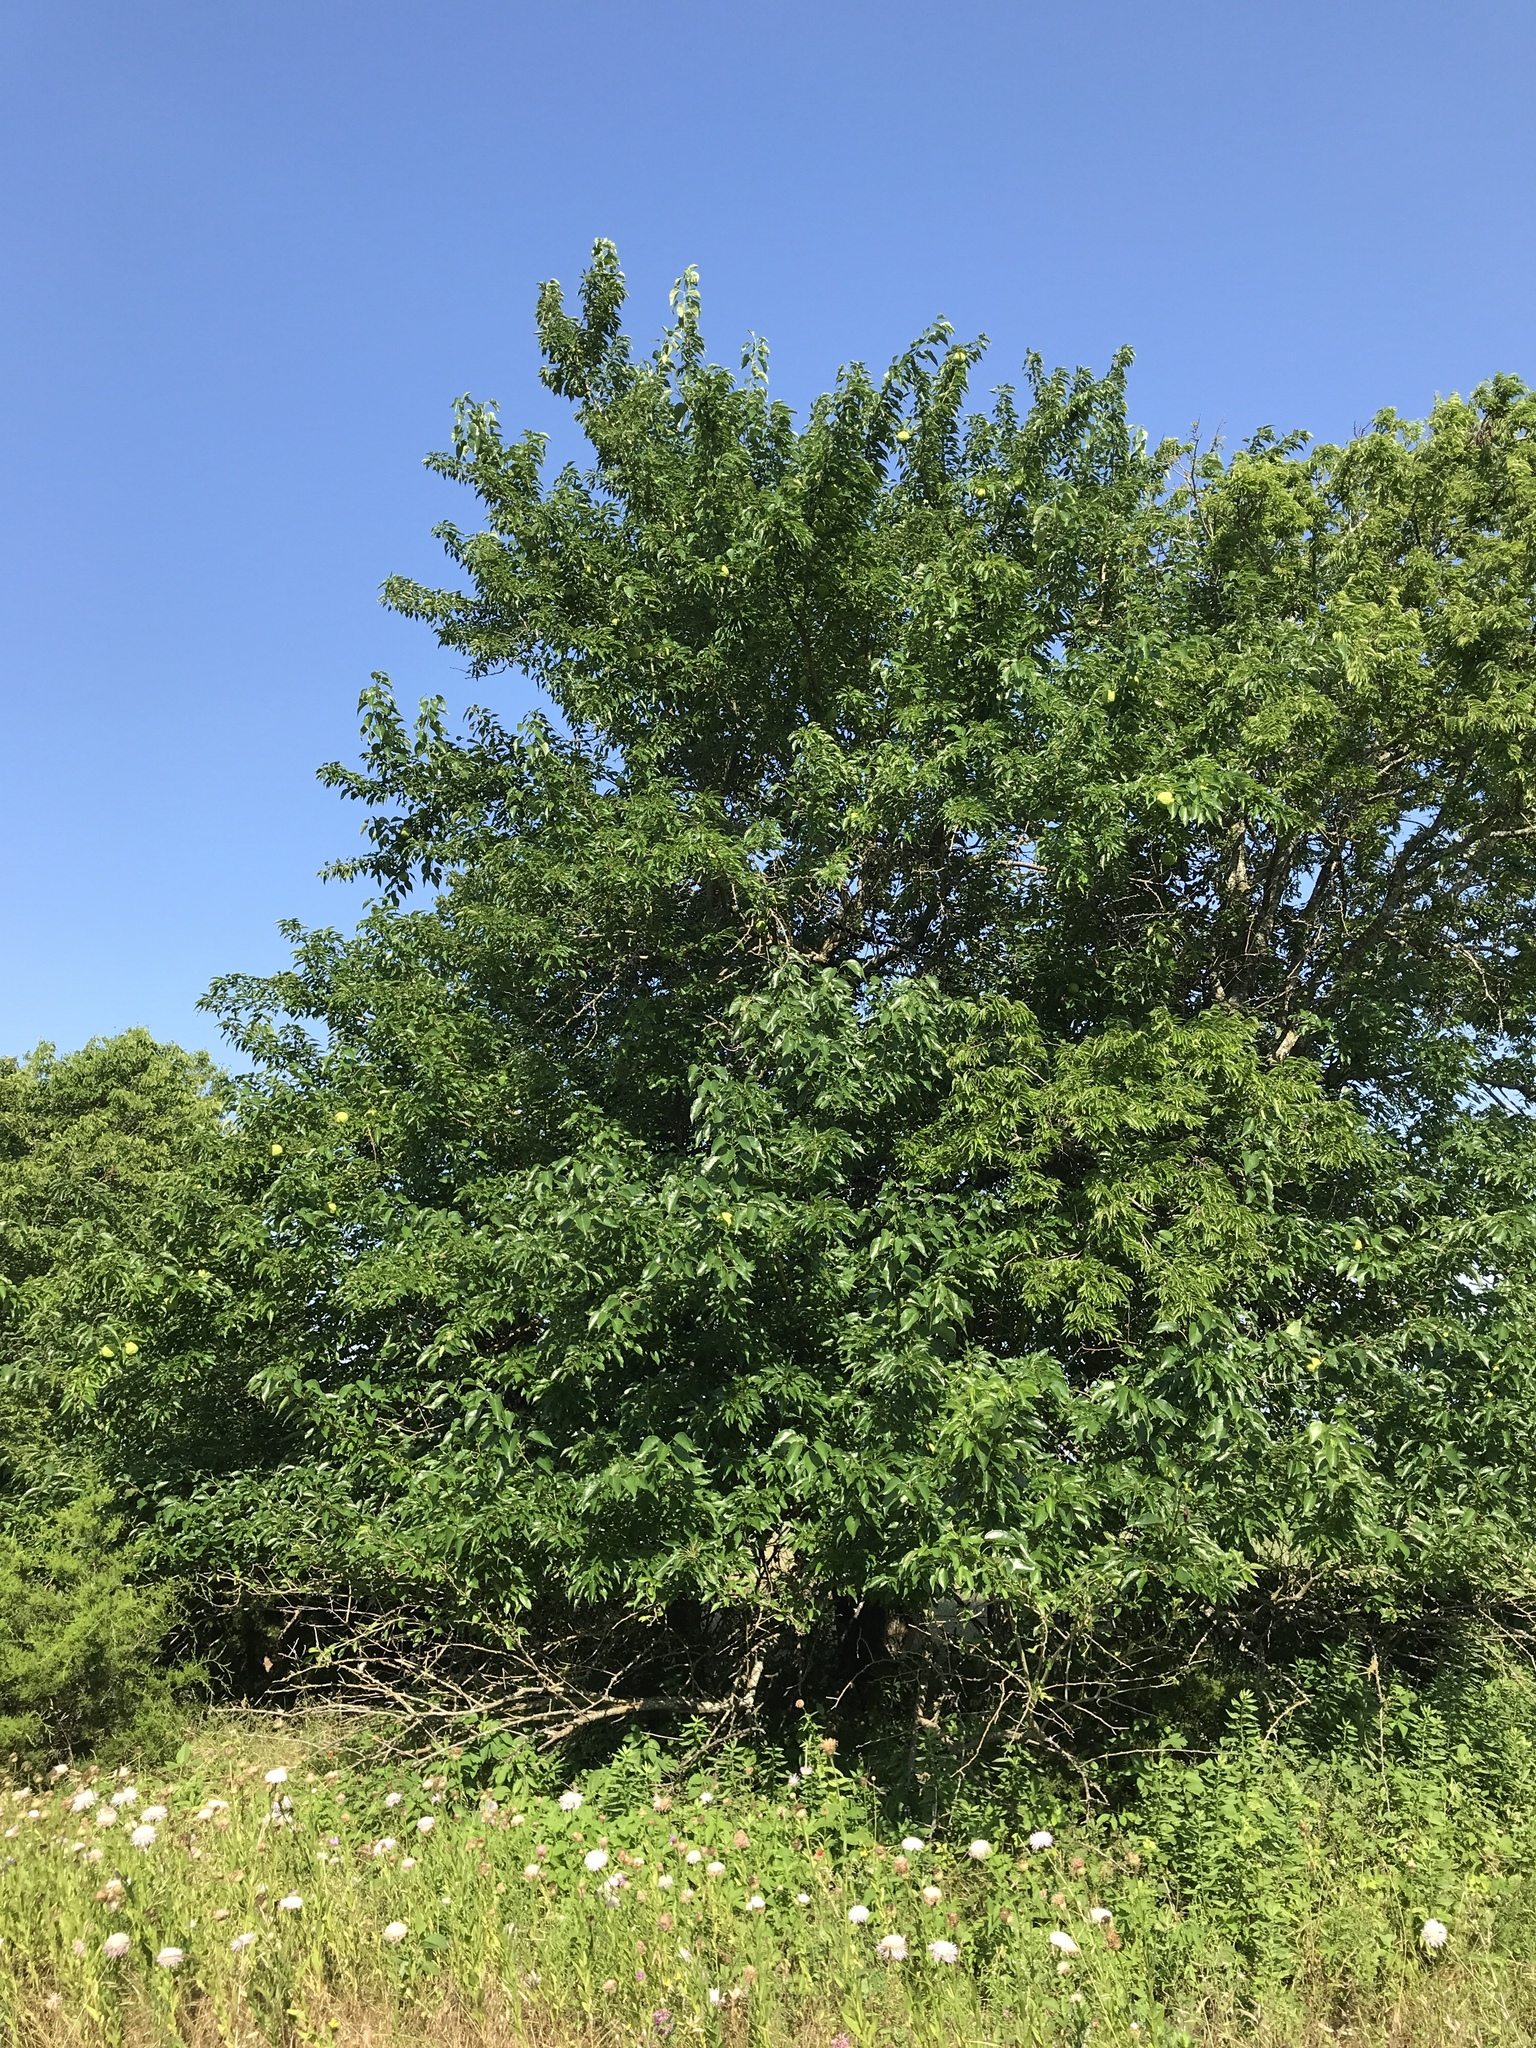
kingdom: Plantae
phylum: Tracheophyta
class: Magnoliopsida
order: Rosales
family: Moraceae
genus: Maclura
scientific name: Maclura pomifera
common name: Osage-orange
